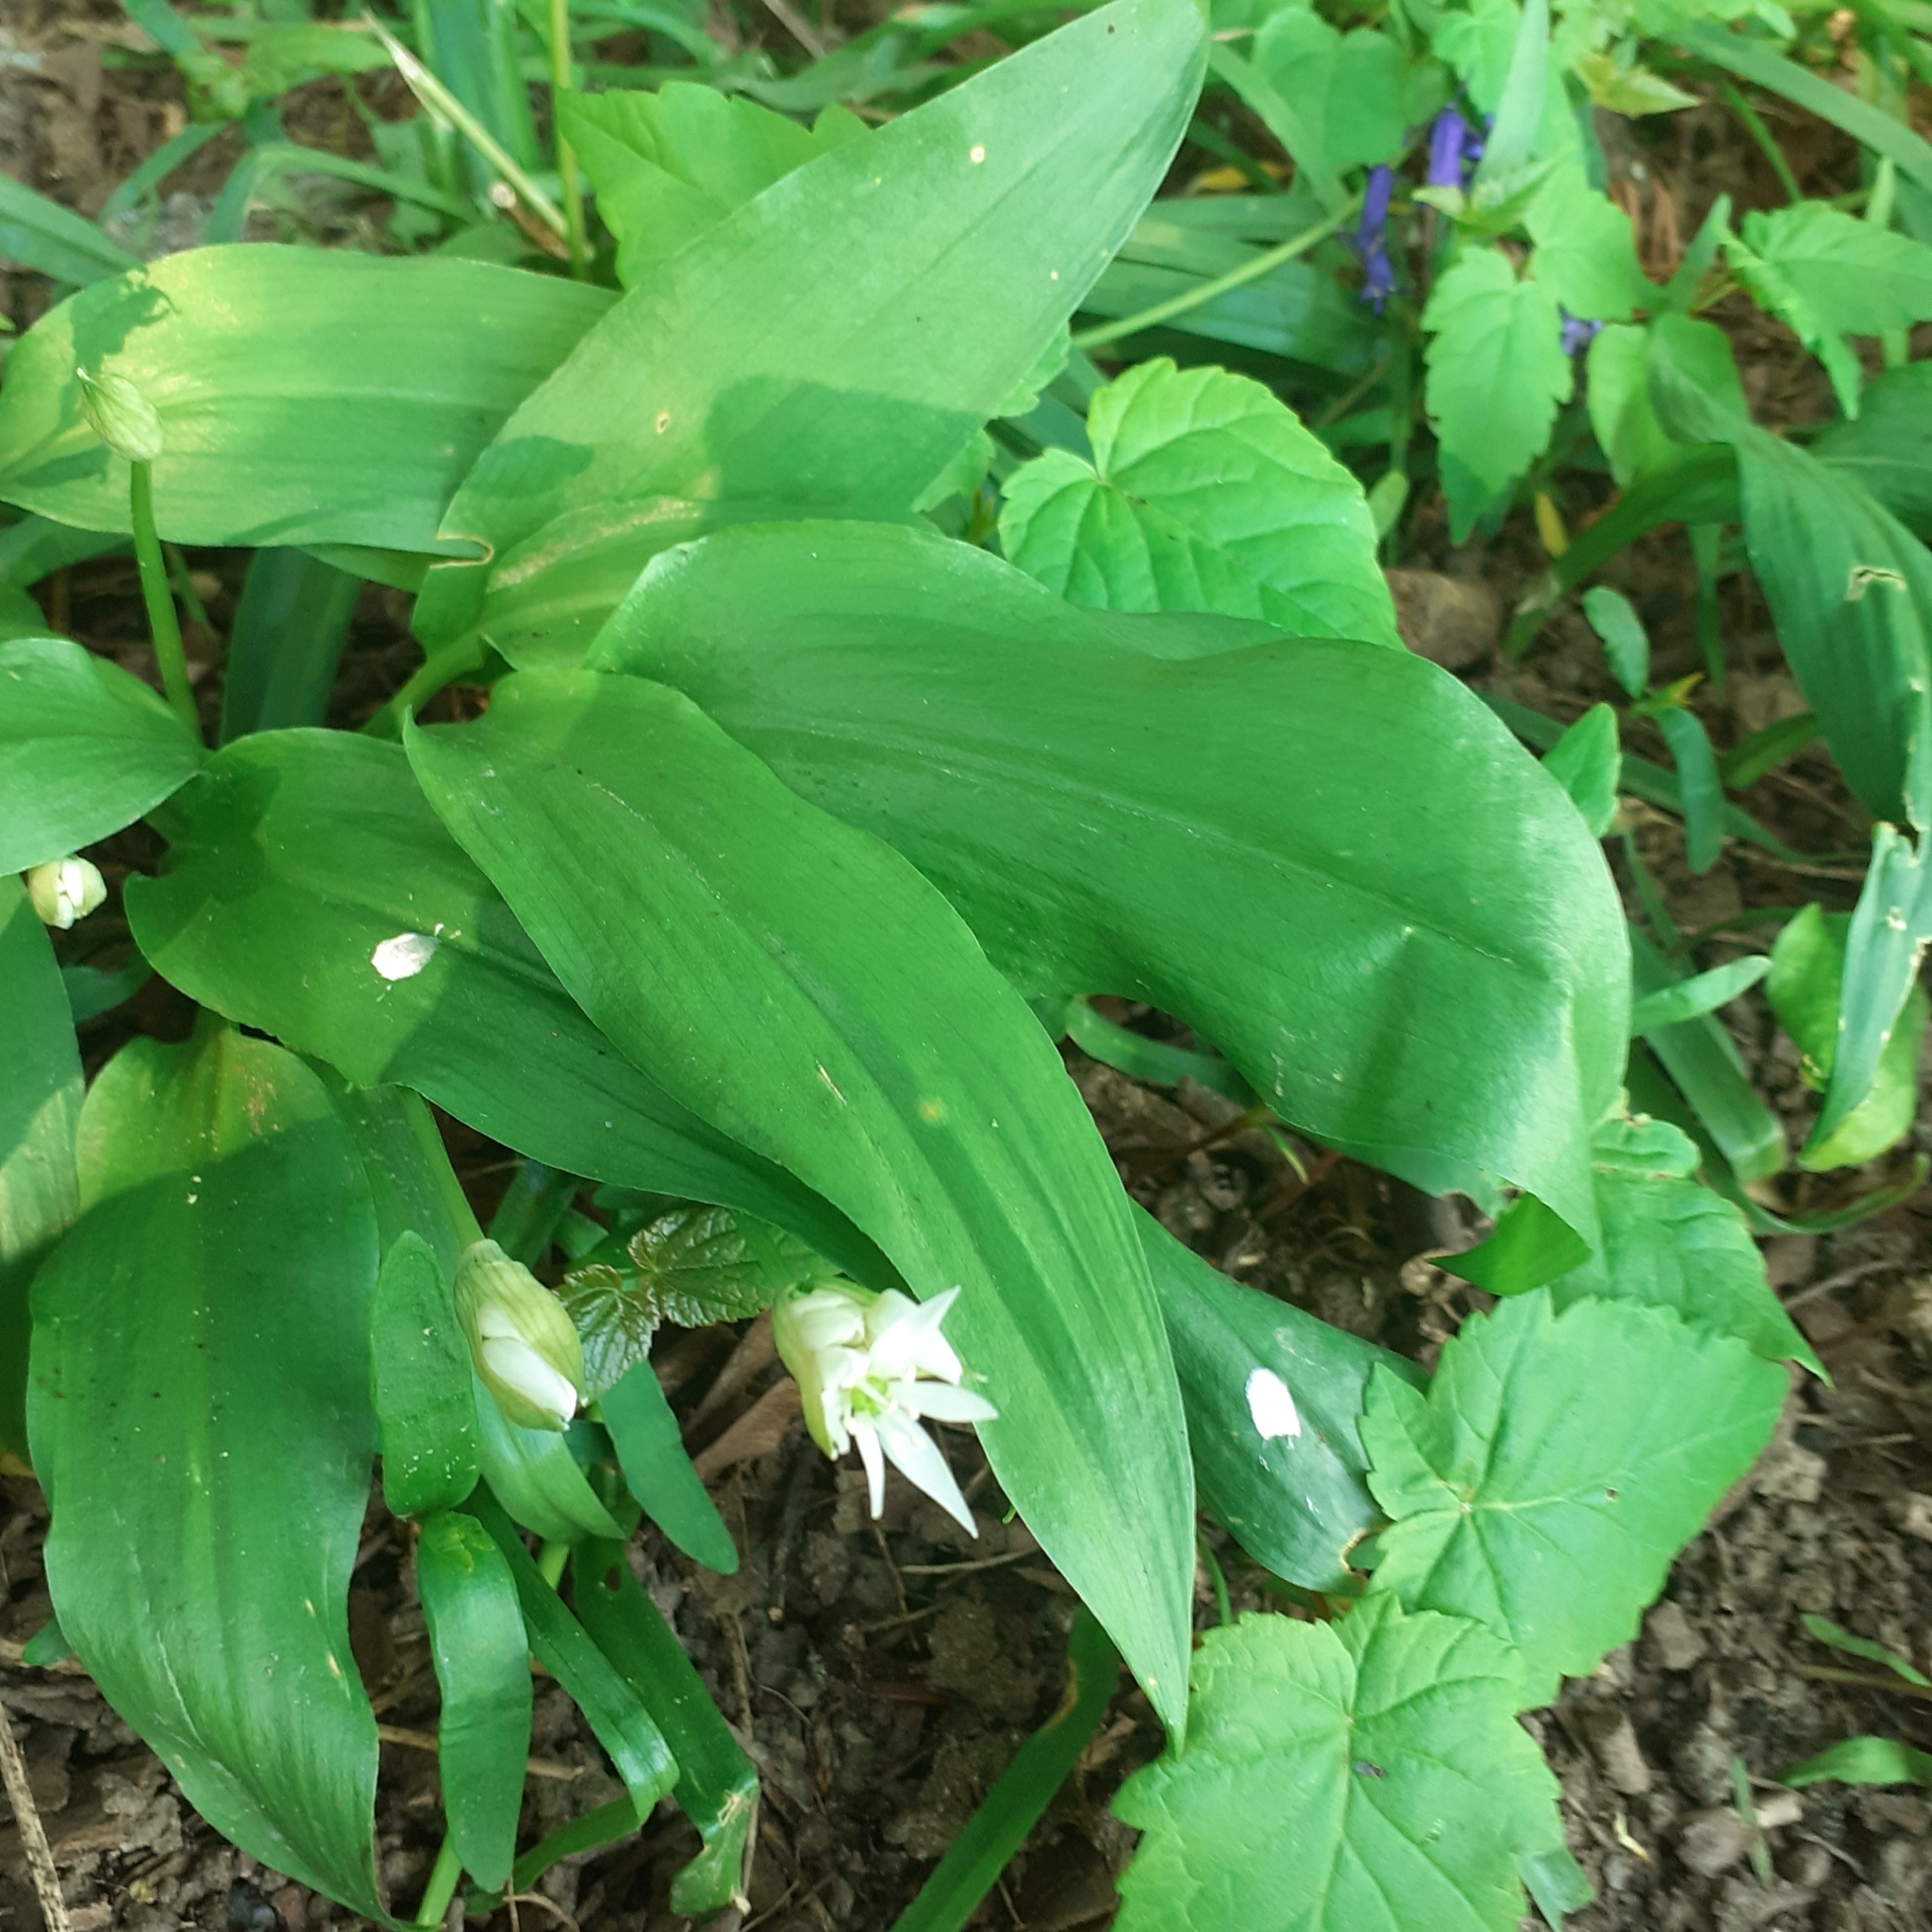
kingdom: Plantae
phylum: Tracheophyta
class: Liliopsida
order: Asparagales
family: Amaryllidaceae
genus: Allium
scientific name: Allium ursinum
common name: Ramsons
